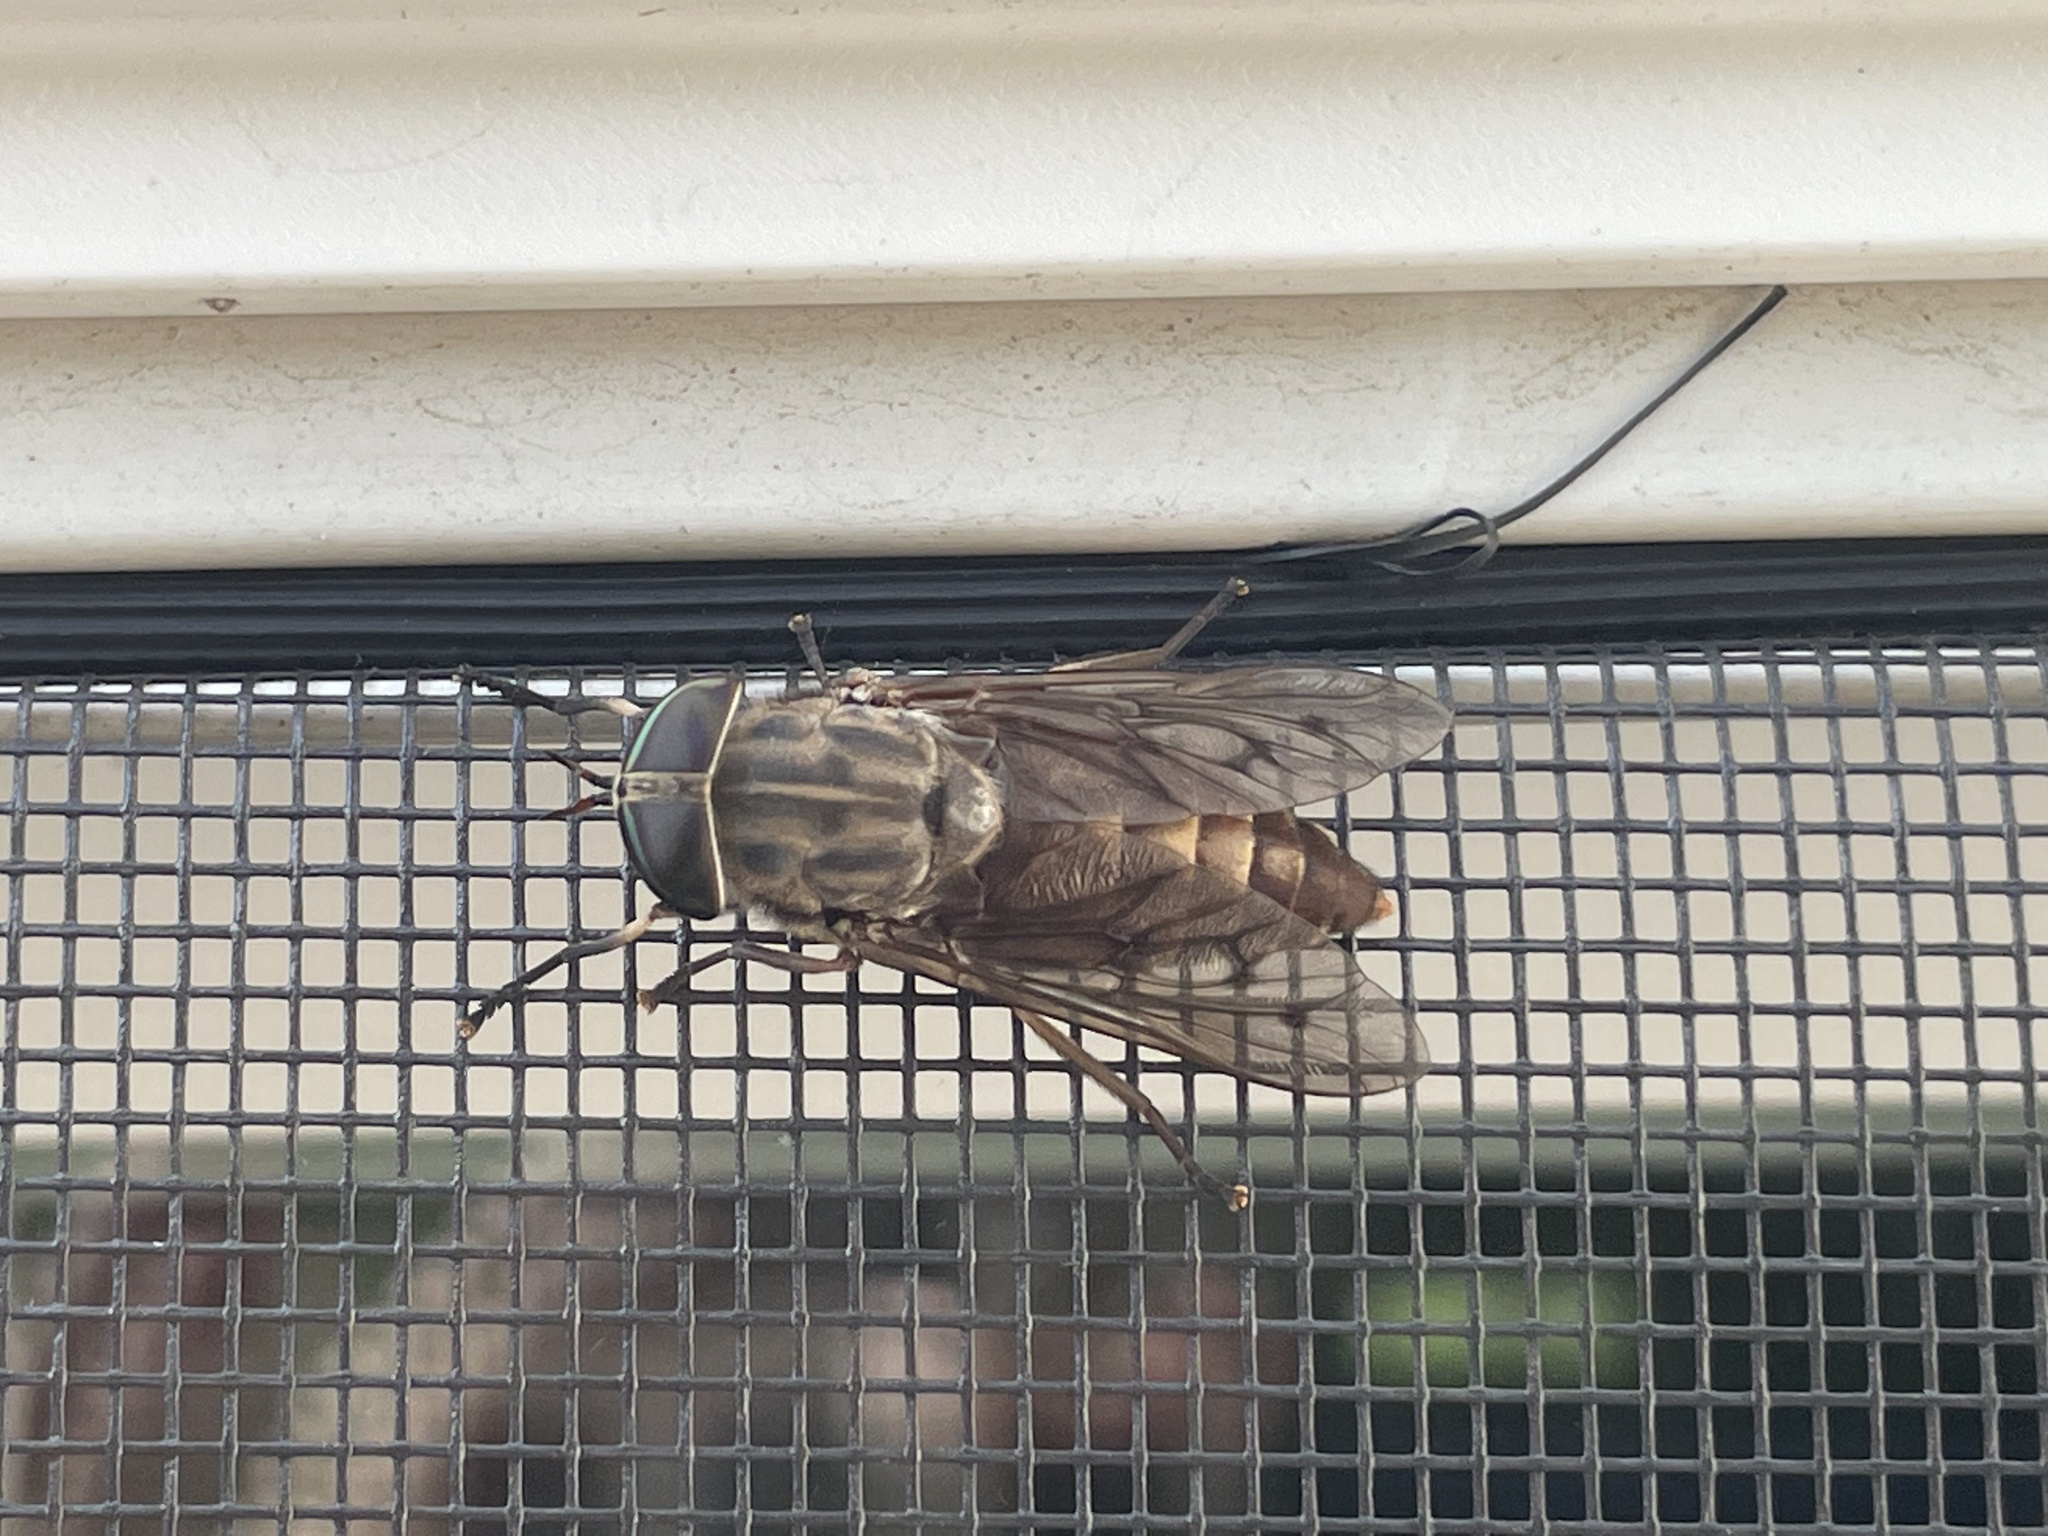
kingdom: Animalia
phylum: Arthropoda
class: Insecta
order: Diptera
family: Tabanidae
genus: Tabanus
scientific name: Tabanus sulcifrons
